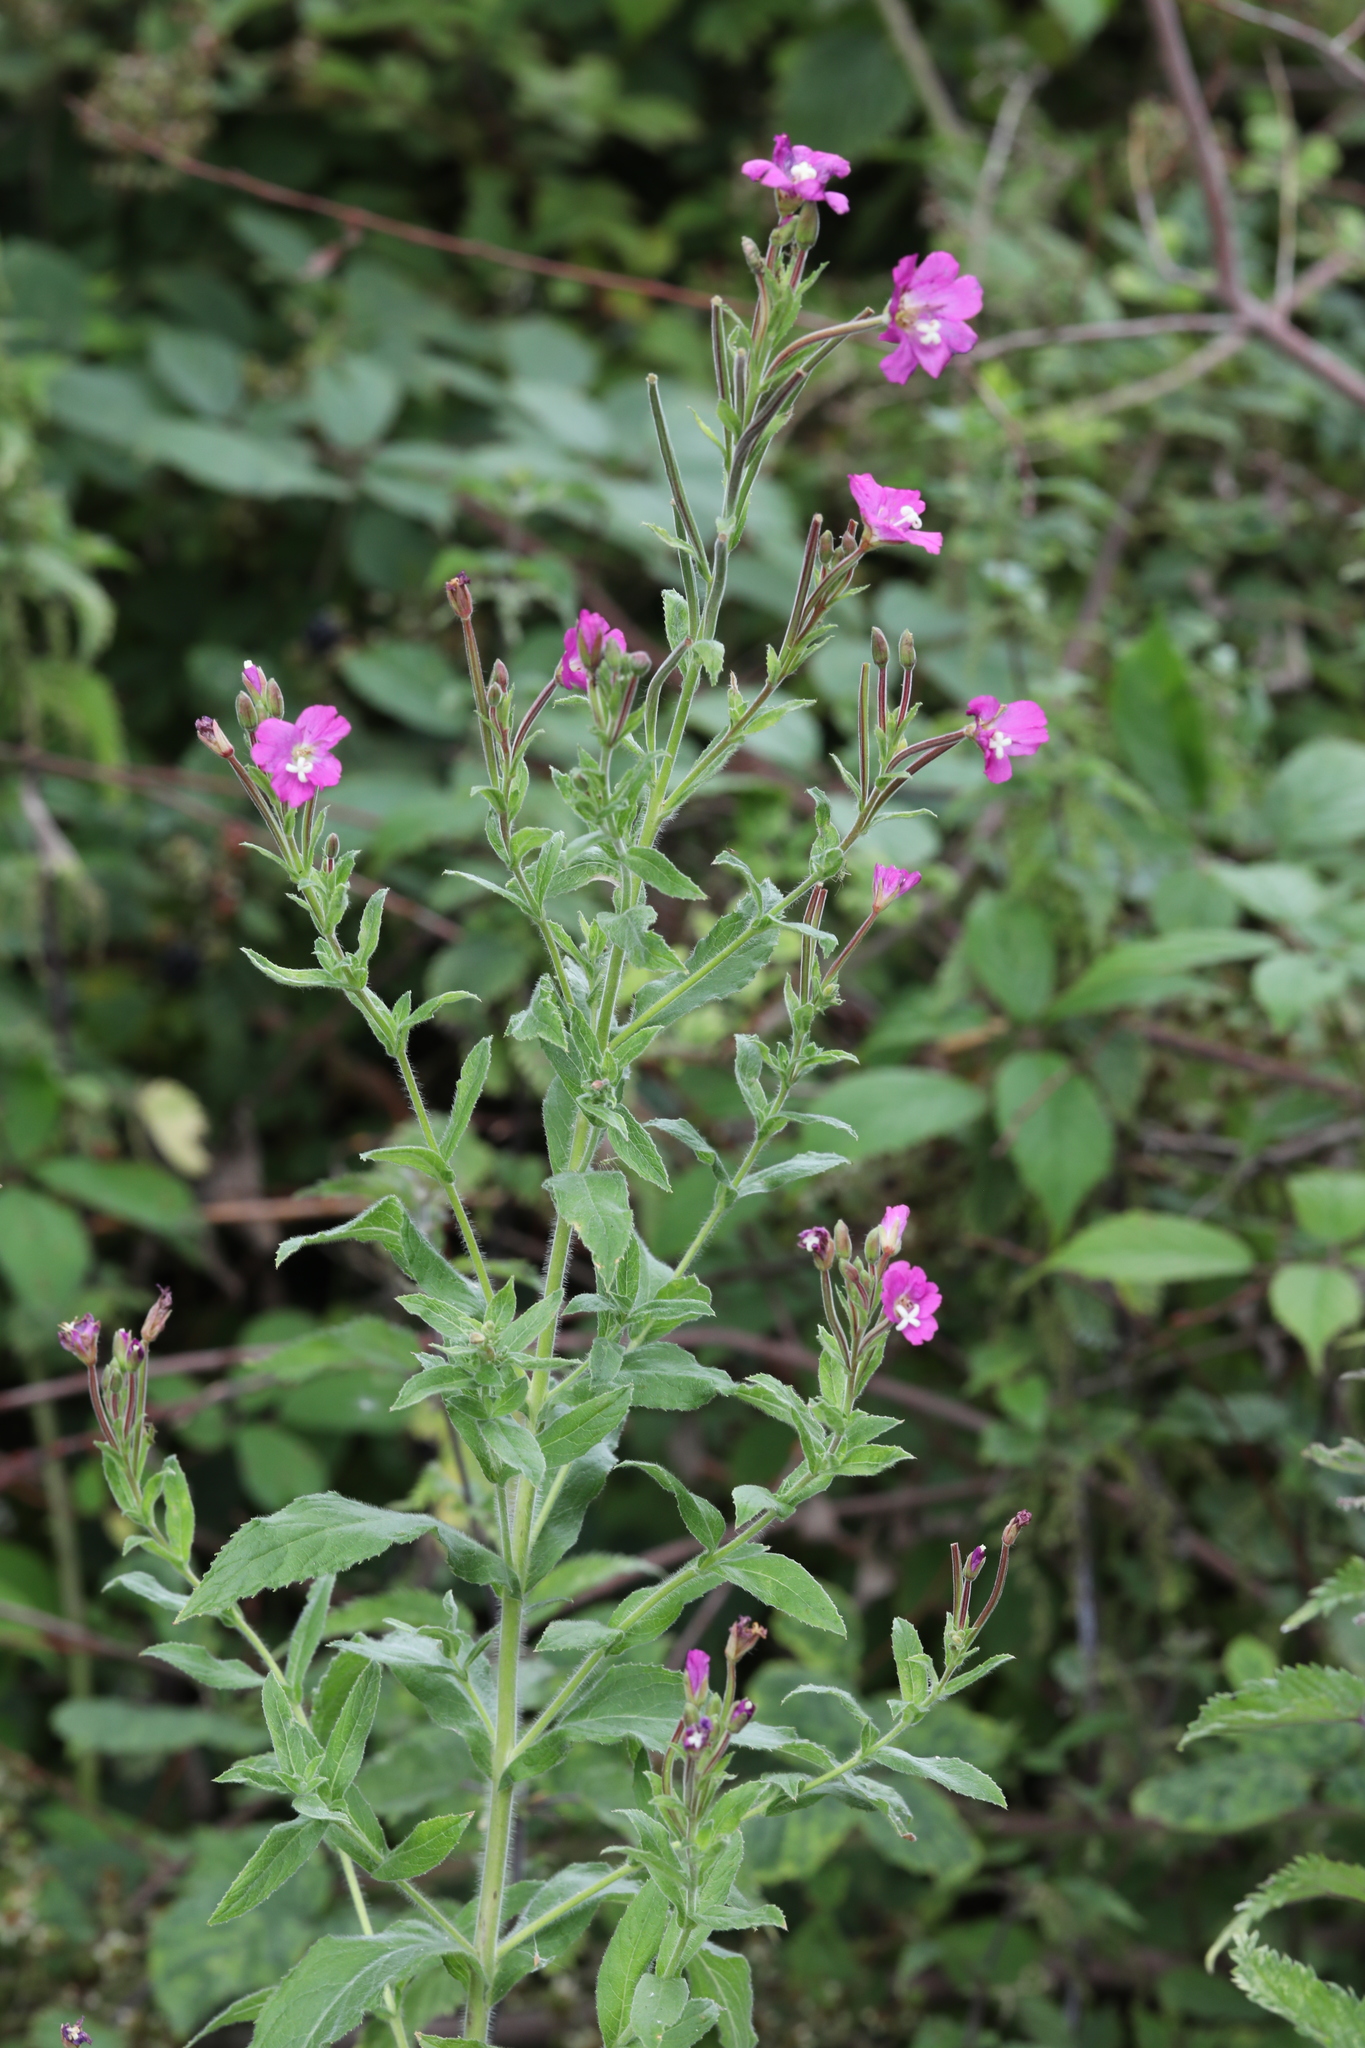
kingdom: Plantae
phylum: Tracheophyta
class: Magnoliopsida
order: Myrtales
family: Onagraceae
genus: Epilobium
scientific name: Epilobium hirsutum
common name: Great willowherb
